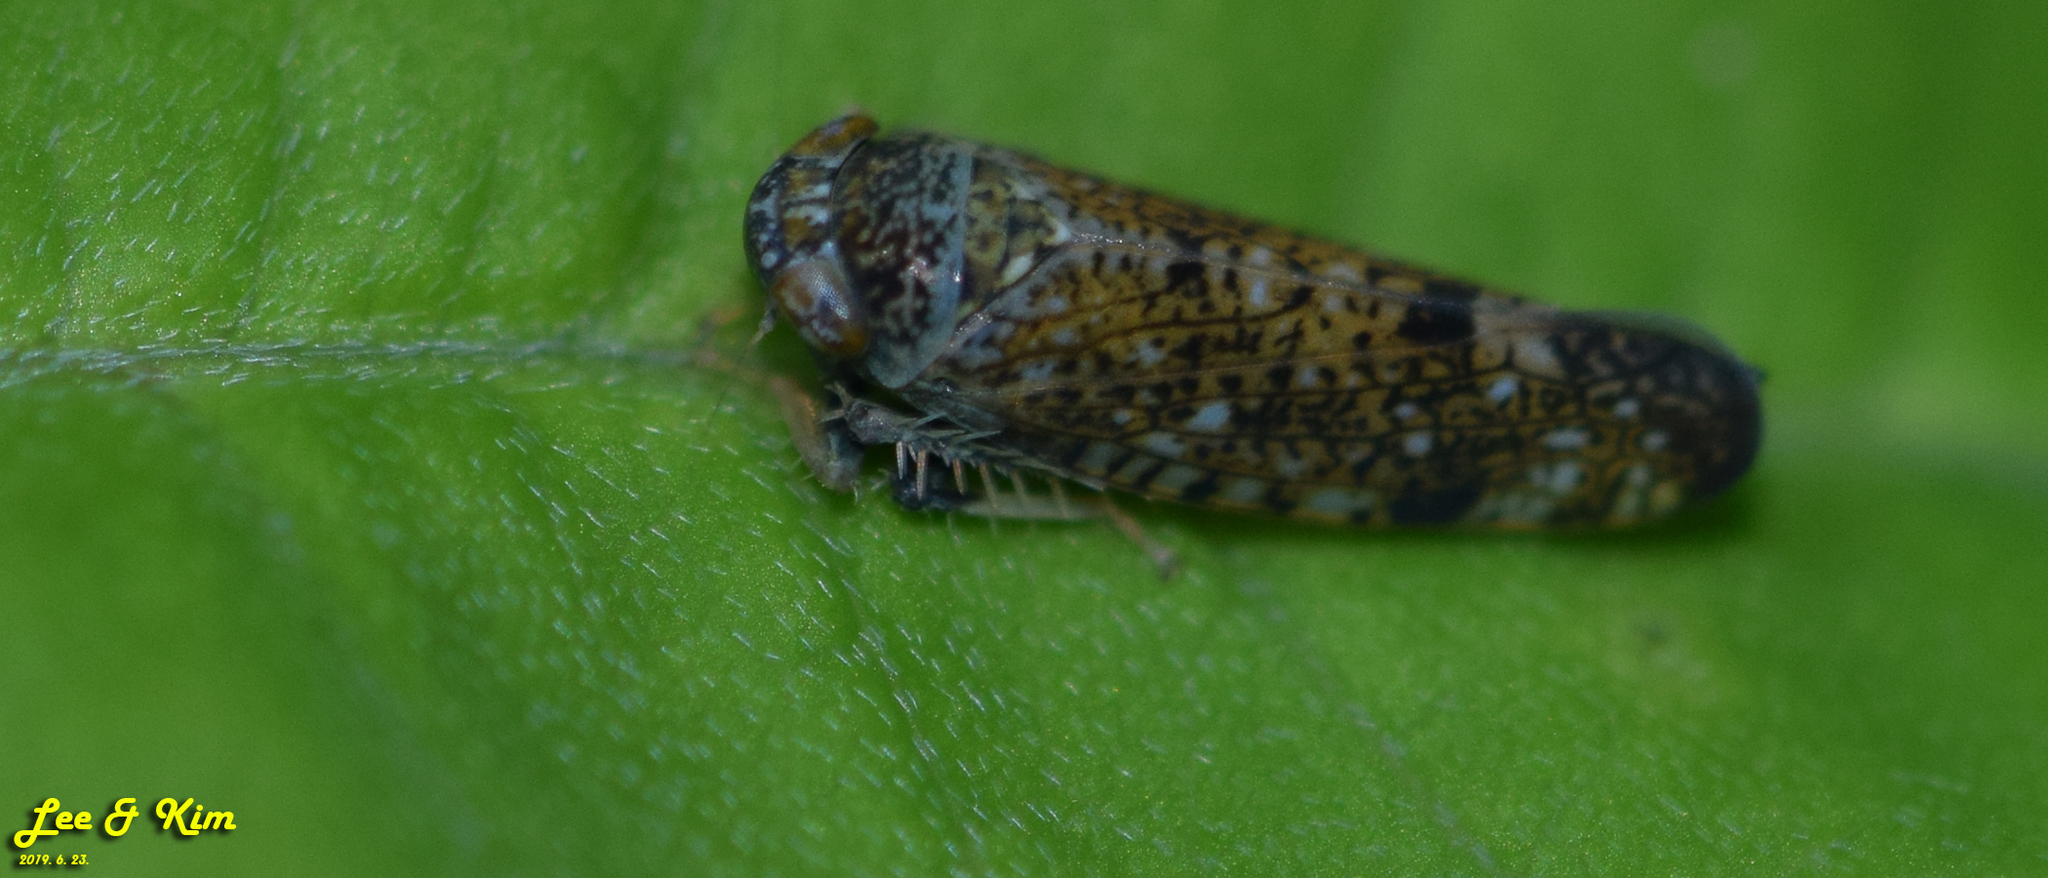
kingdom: Animalia
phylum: Arthropoda
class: Insecta
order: Hemiptera
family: Cicadellidae
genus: Orientus
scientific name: Orientus ishidae
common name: Japanese leafhopper
